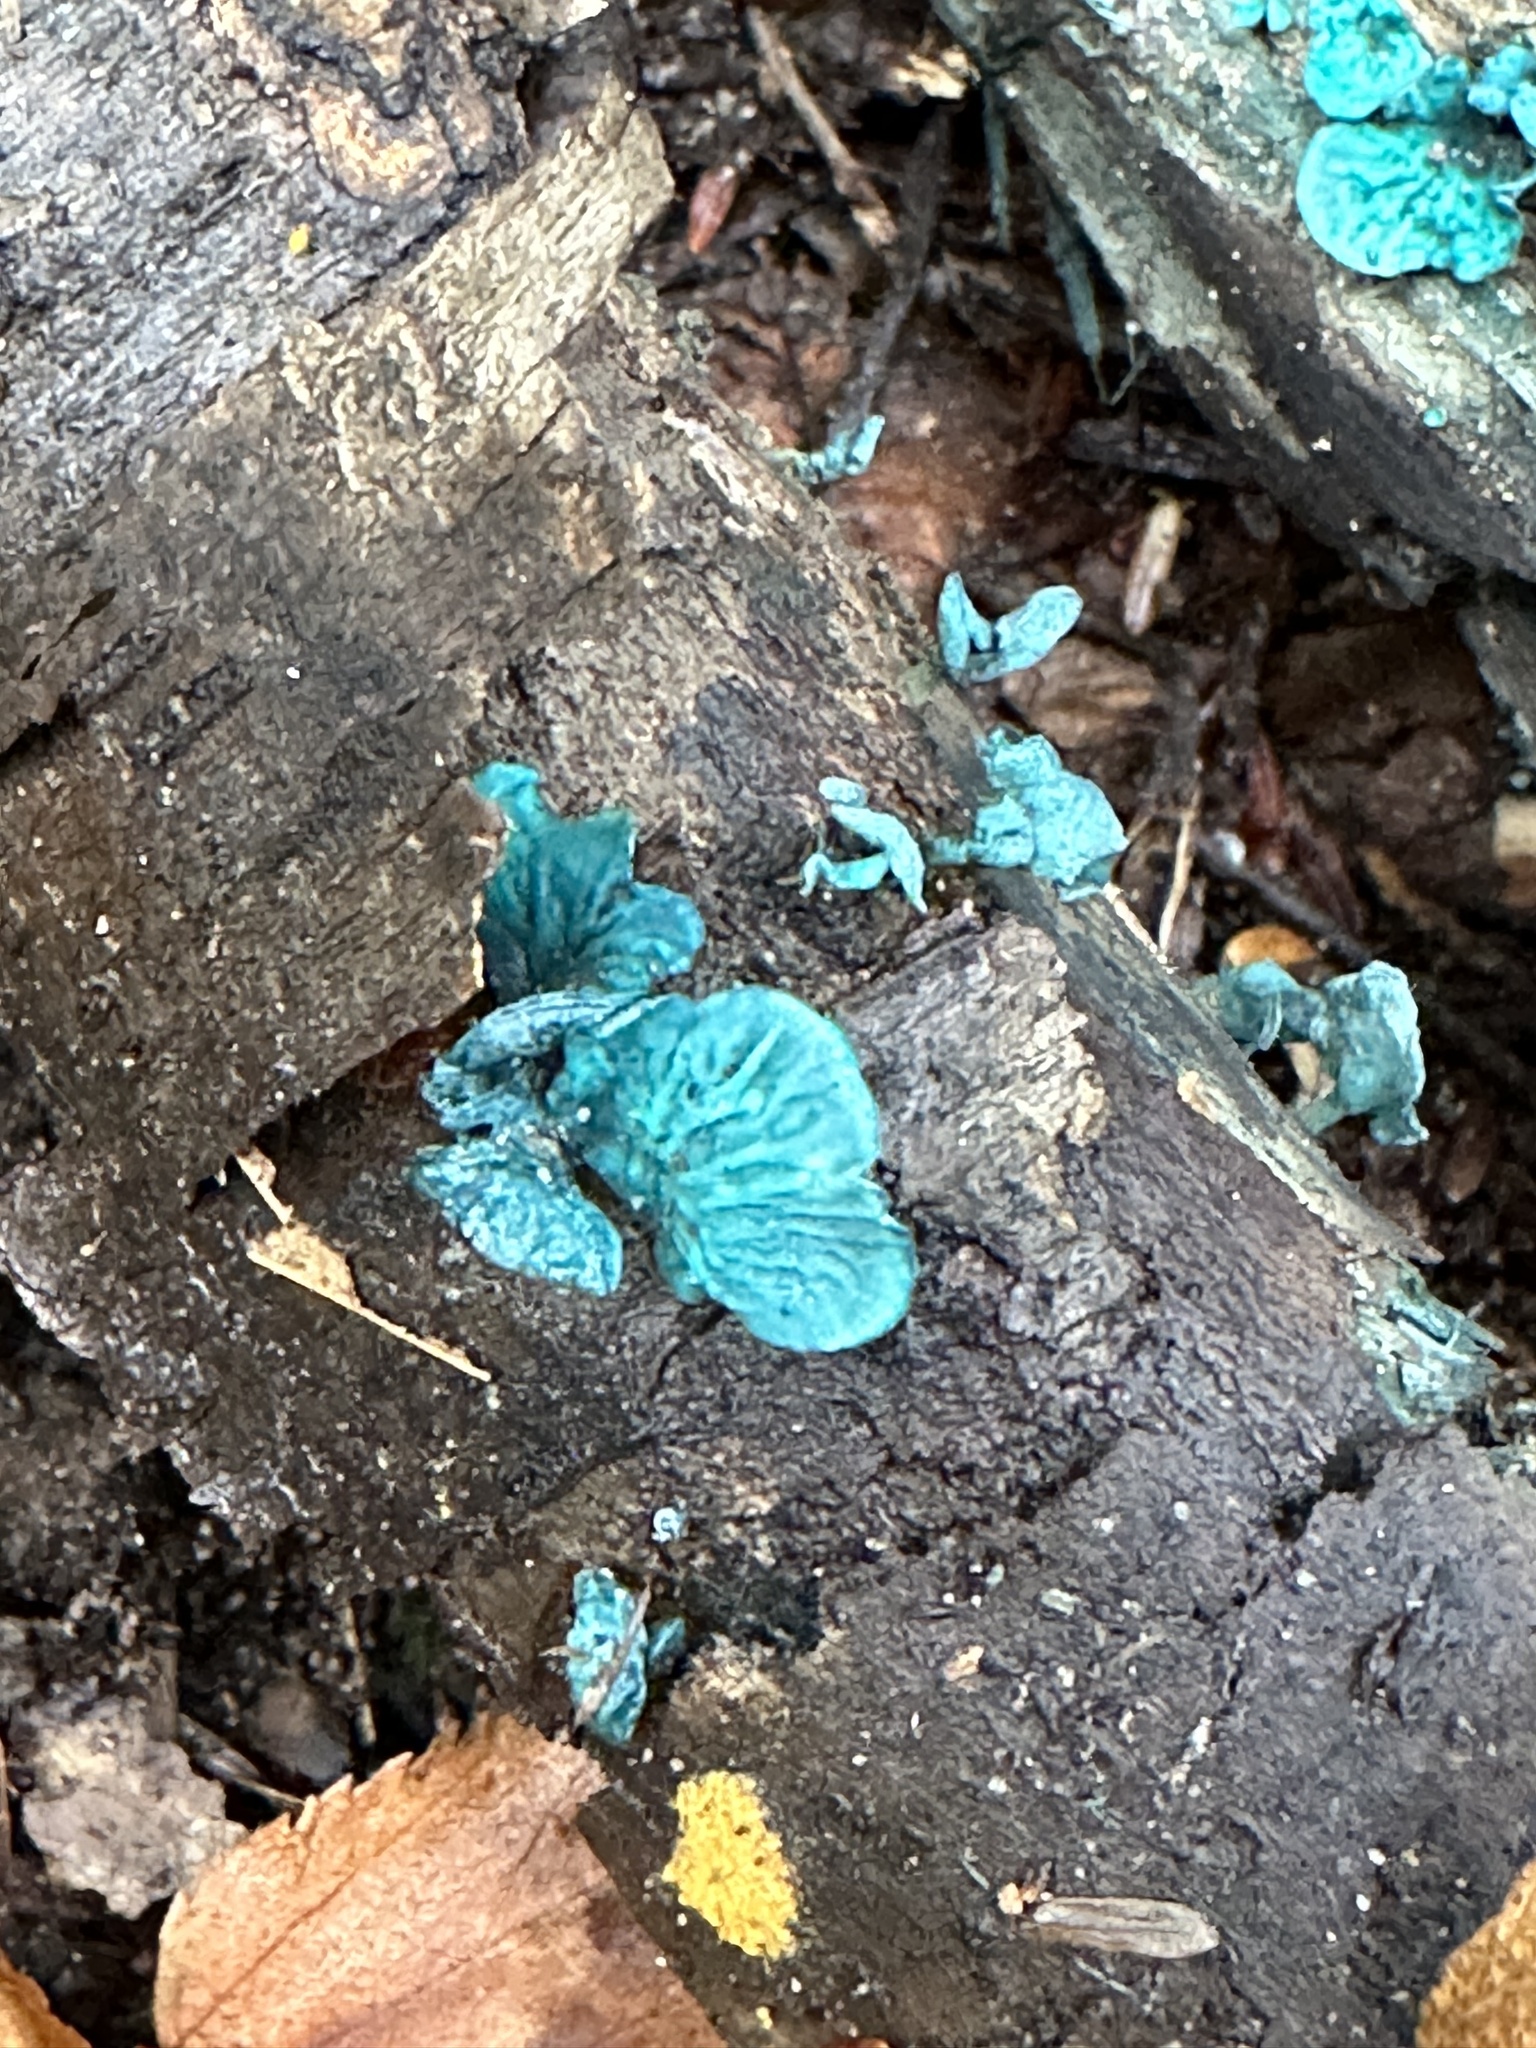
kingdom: Fungi
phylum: Ascomycota
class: Leotiomycetes
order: Helotiales
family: Chlorociboriaceae
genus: Chlorociboria
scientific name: Chlorociboria aeruginascens
